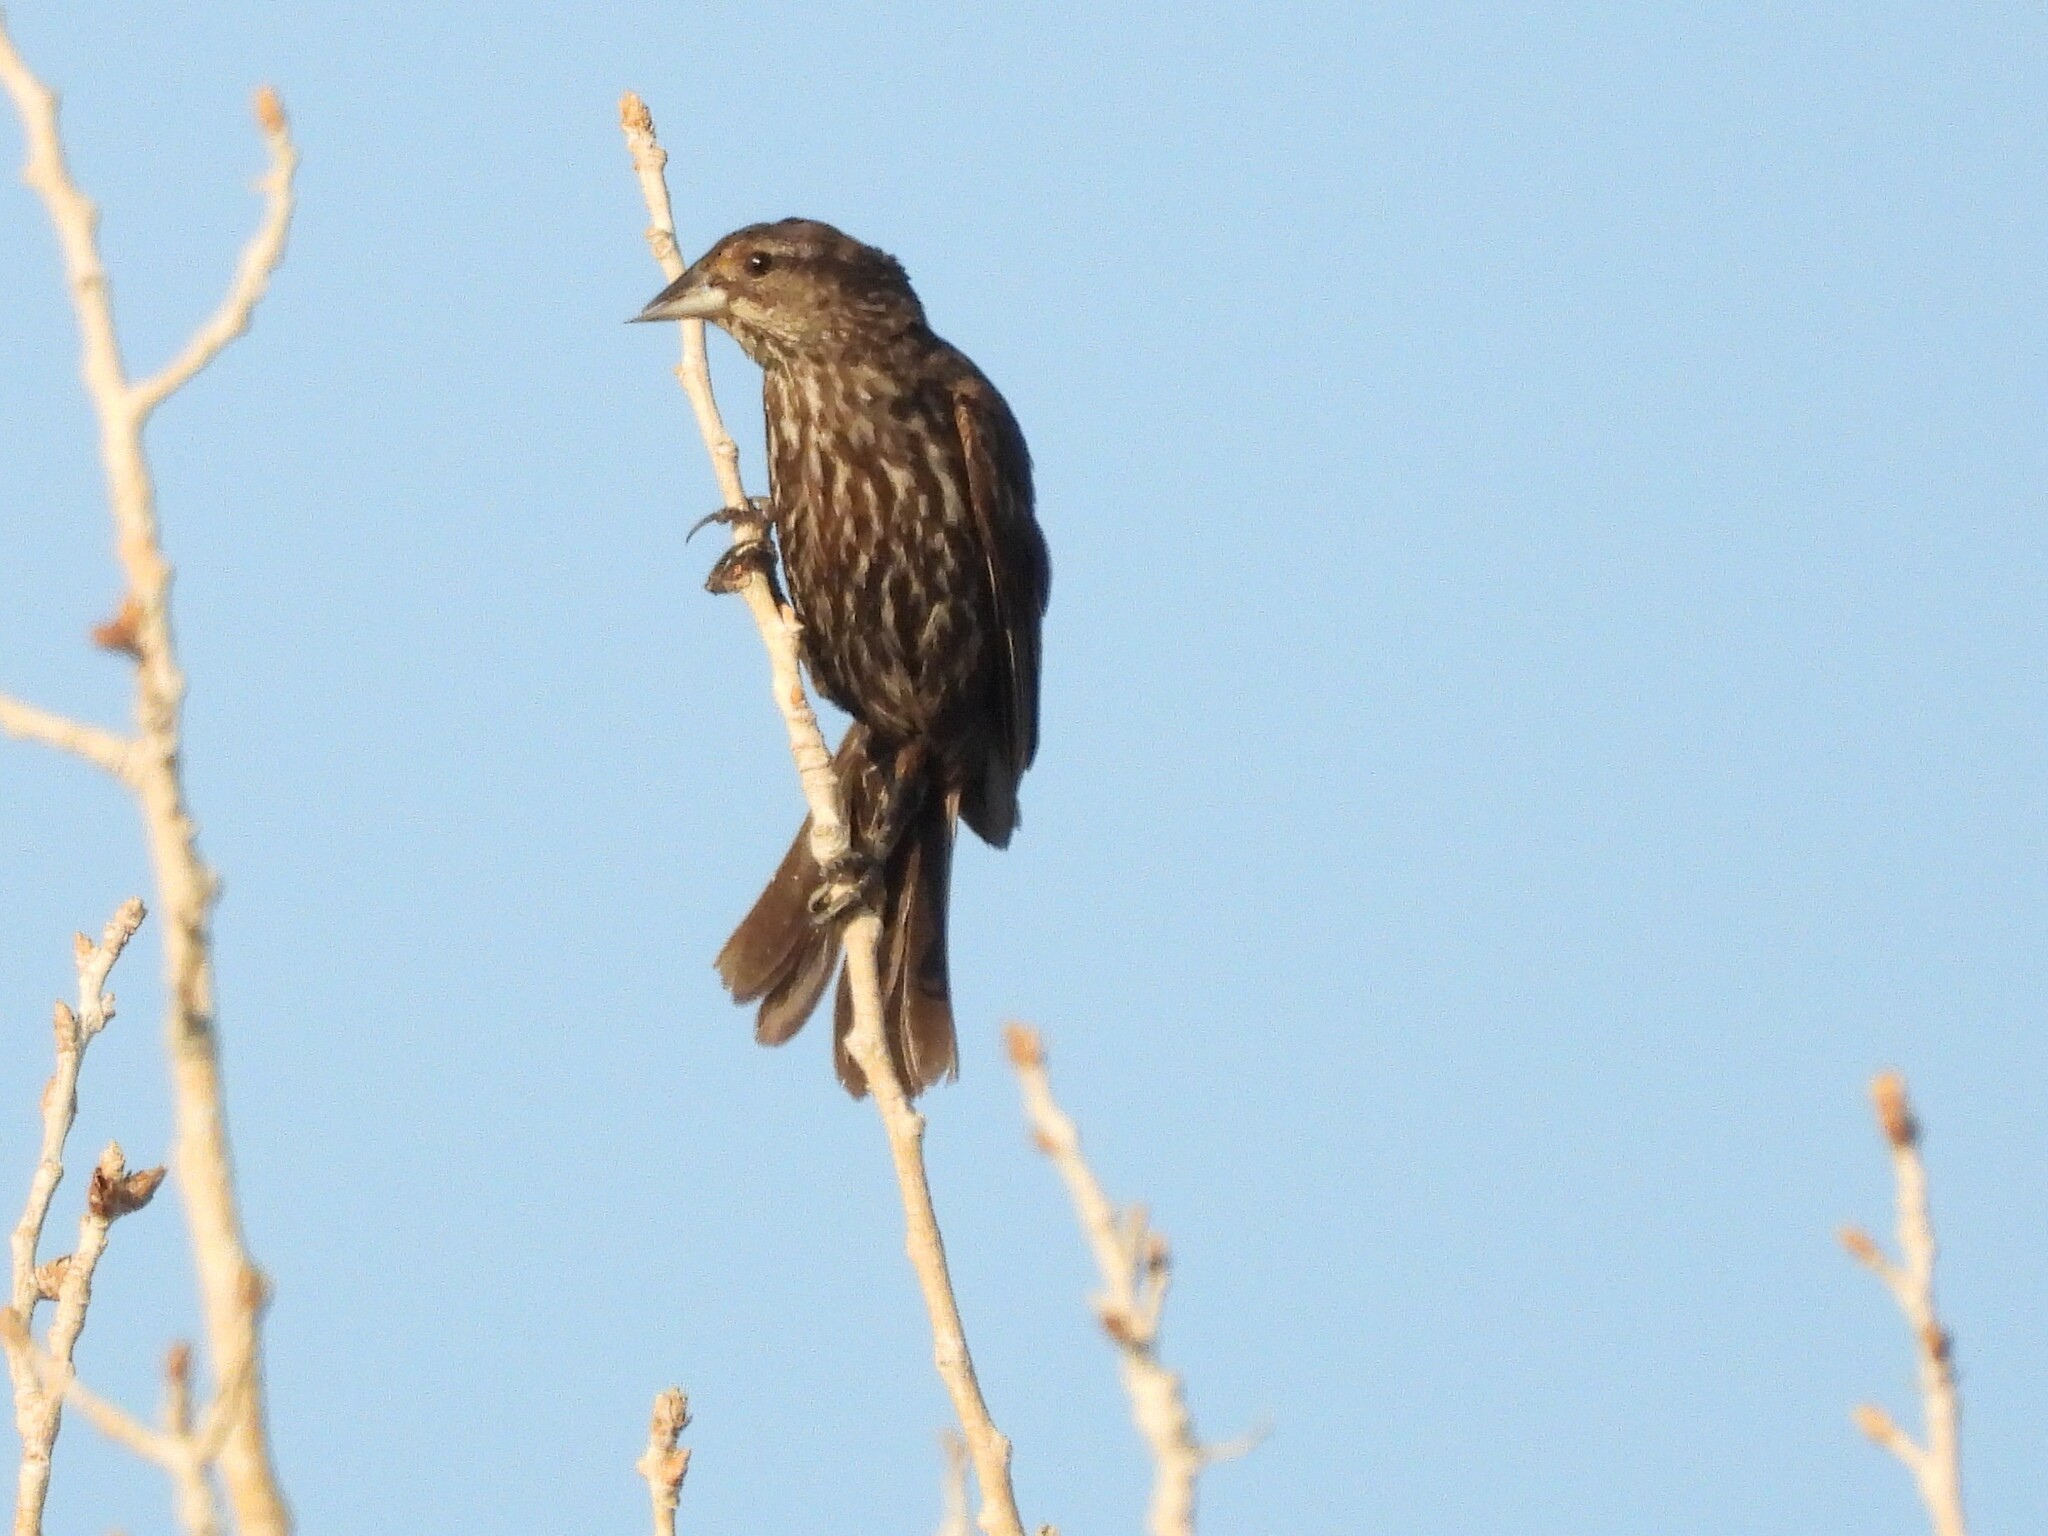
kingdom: Animalia
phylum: Chordata
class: Aves
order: Passeriformes
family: Icteridae
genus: Agelaius
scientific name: Agelaius phoeniceus
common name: Red-winged blackbird
